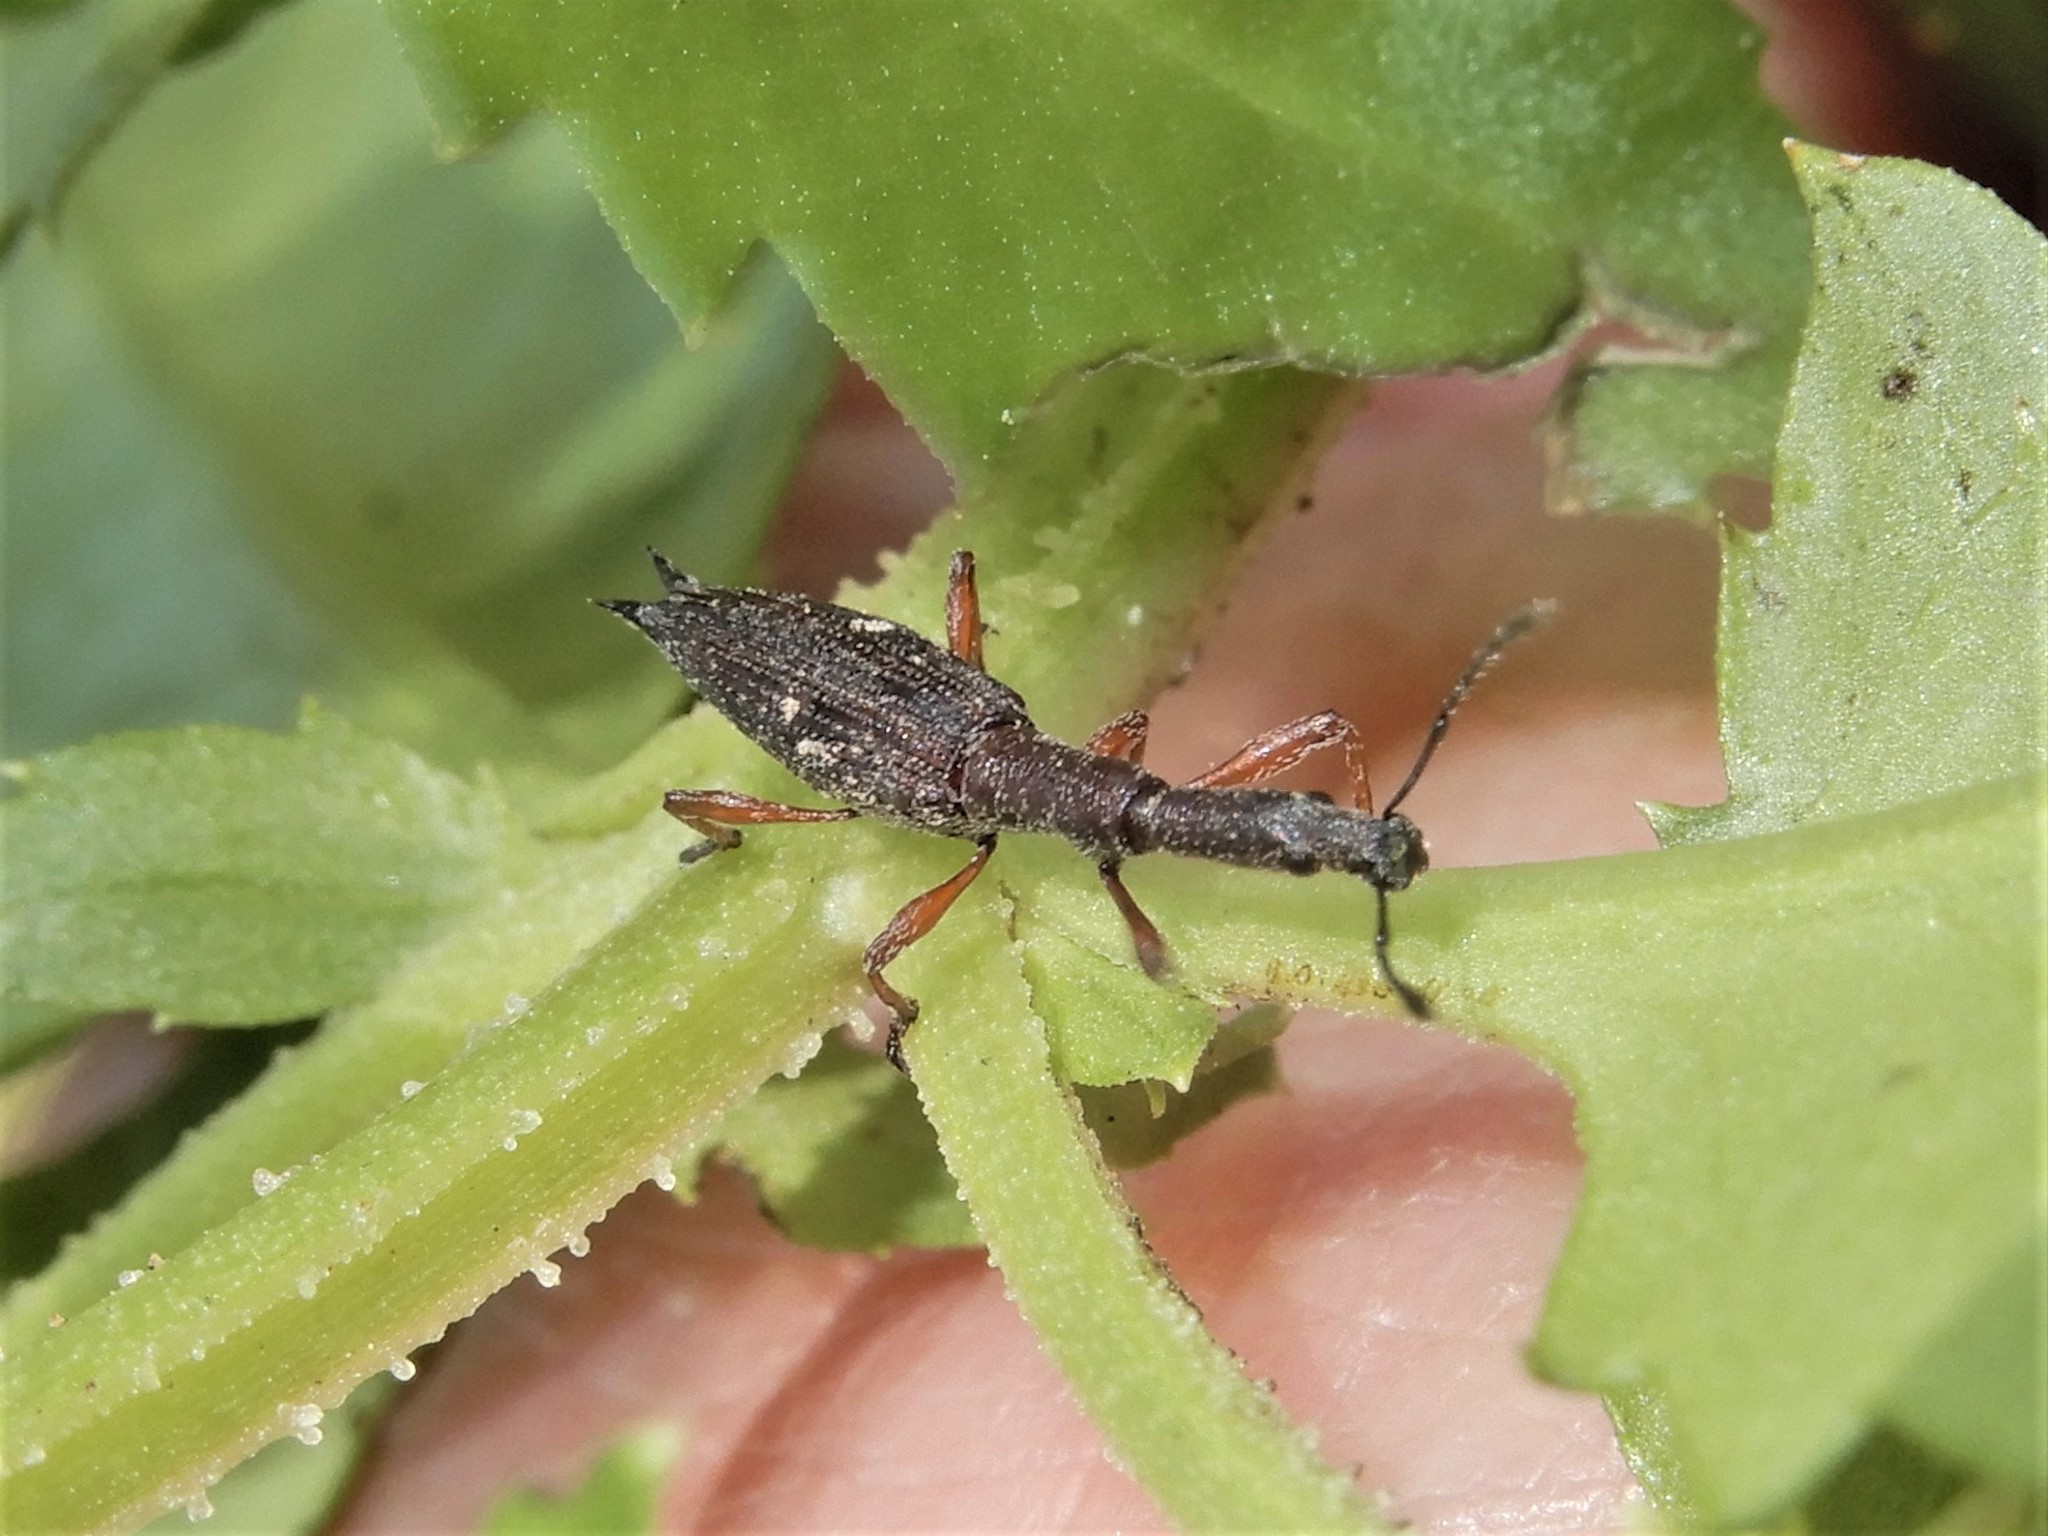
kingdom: Animalia
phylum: Arthropoda
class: Insecta
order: Coleoptera
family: Curculionidae
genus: Rhadinosomus
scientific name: Rhadinosomus acuminatus
